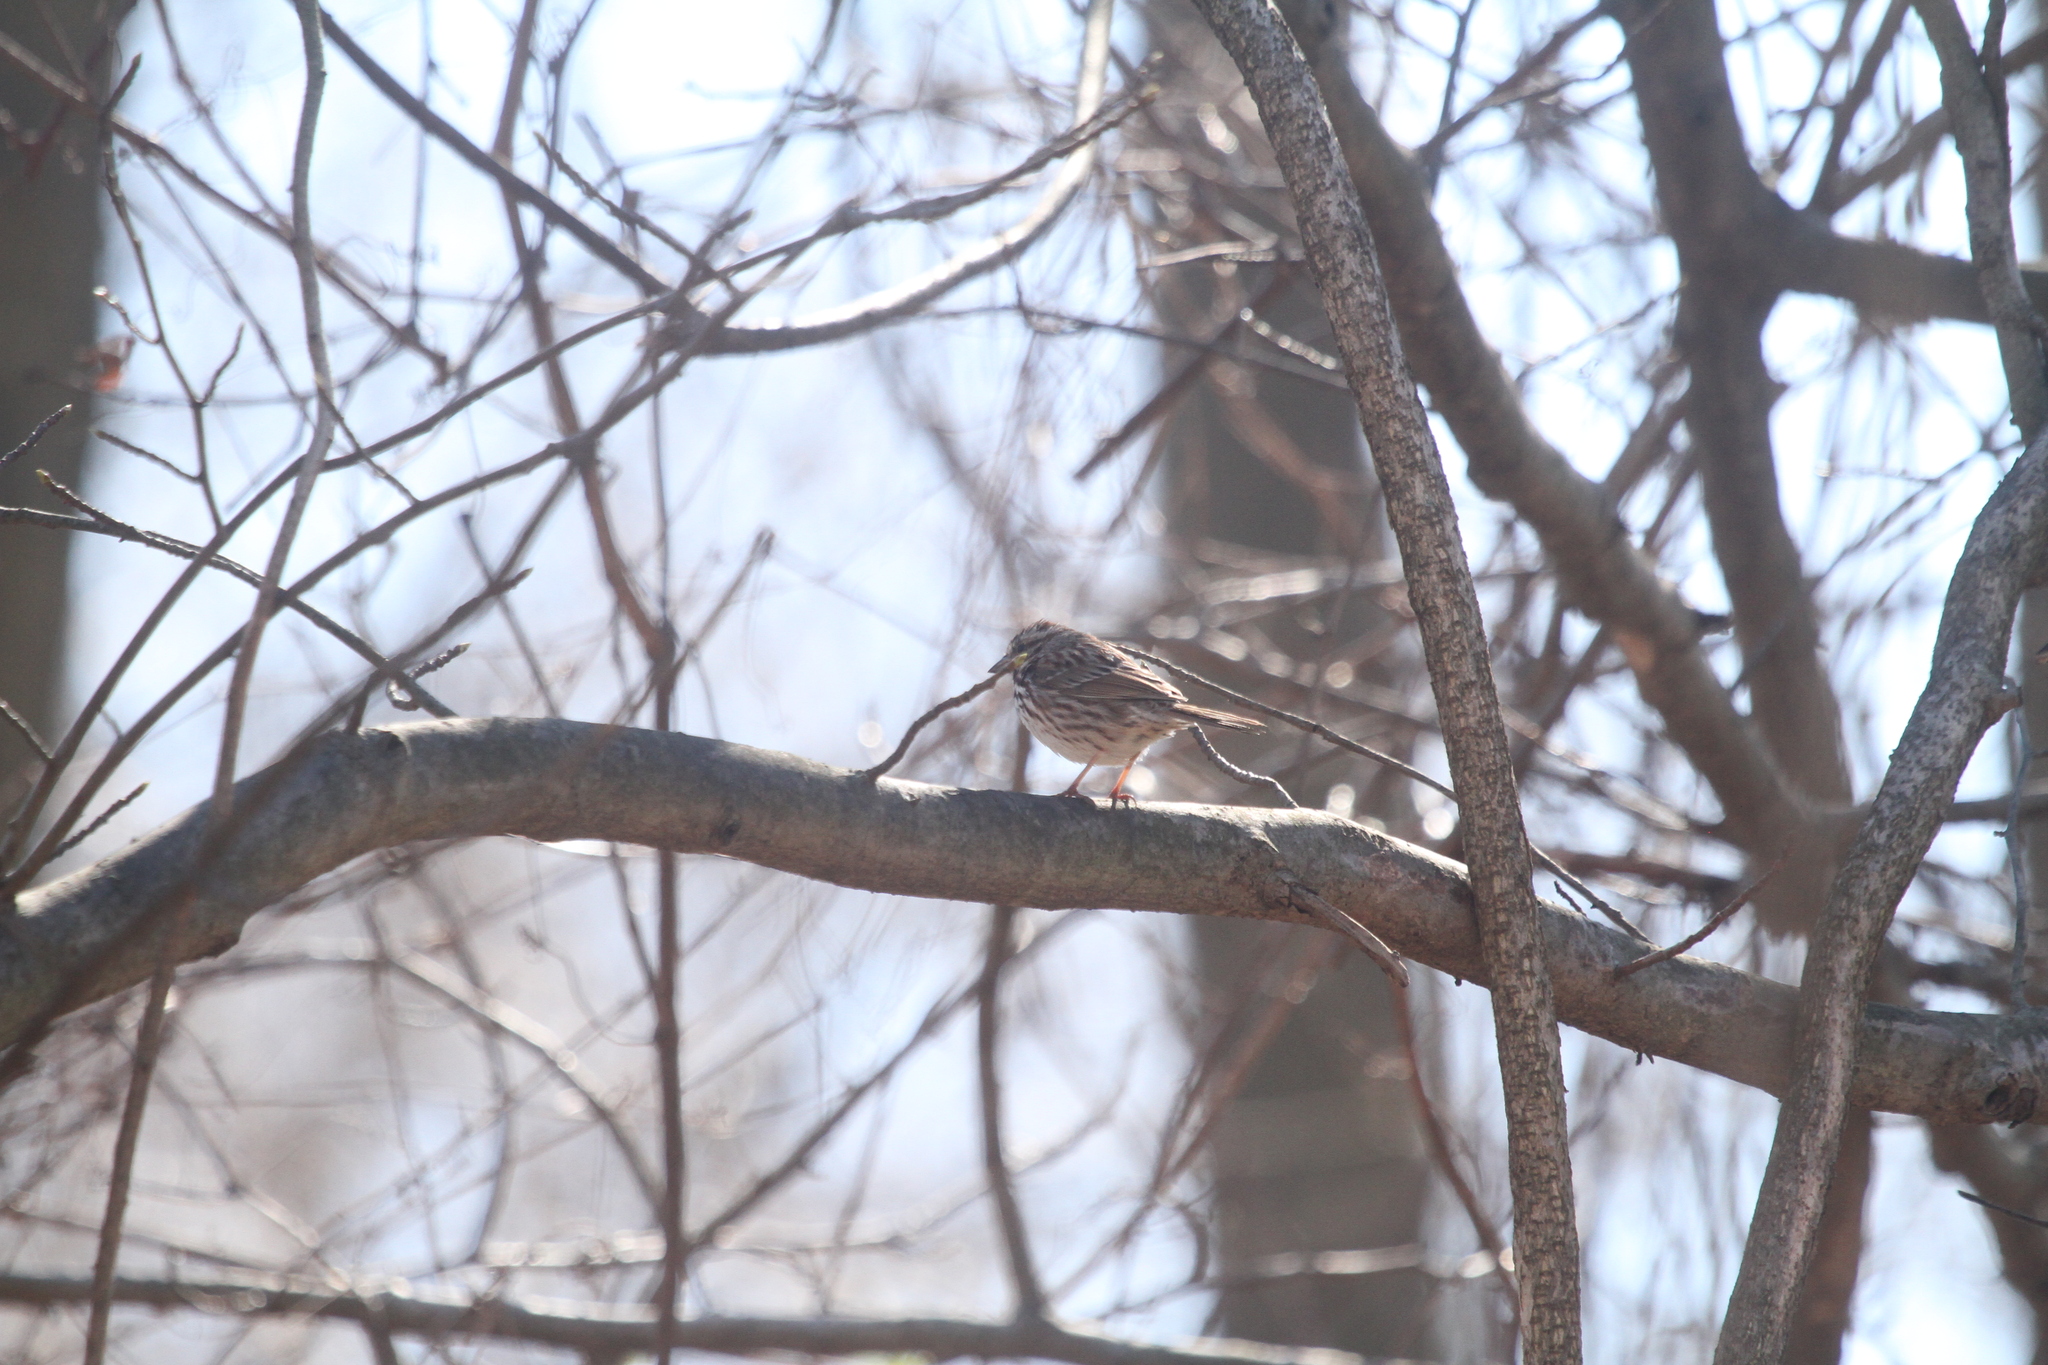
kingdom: Animalia
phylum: Chordata
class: Aves
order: Passeriformes
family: Passerellidae
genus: Melospiza
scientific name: Melospiza melodia
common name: Song sparrow
